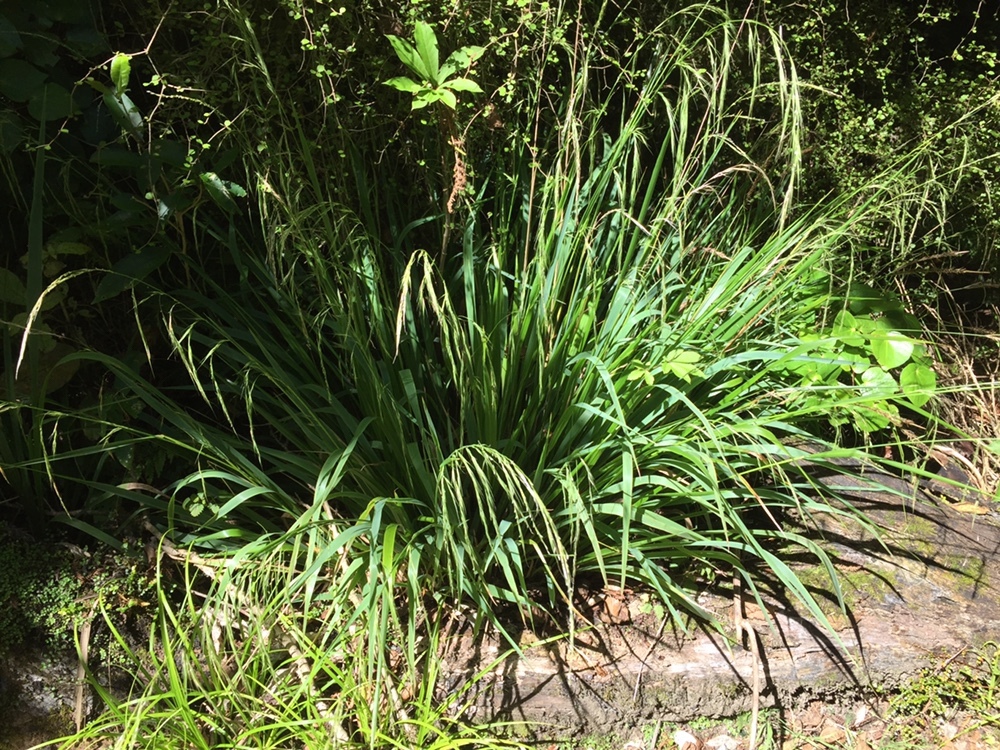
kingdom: Plantae
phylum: Tracheophyta
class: Liliopsida
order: Poales
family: Poaceae
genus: Ehrharta
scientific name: Ehrharta diplax
